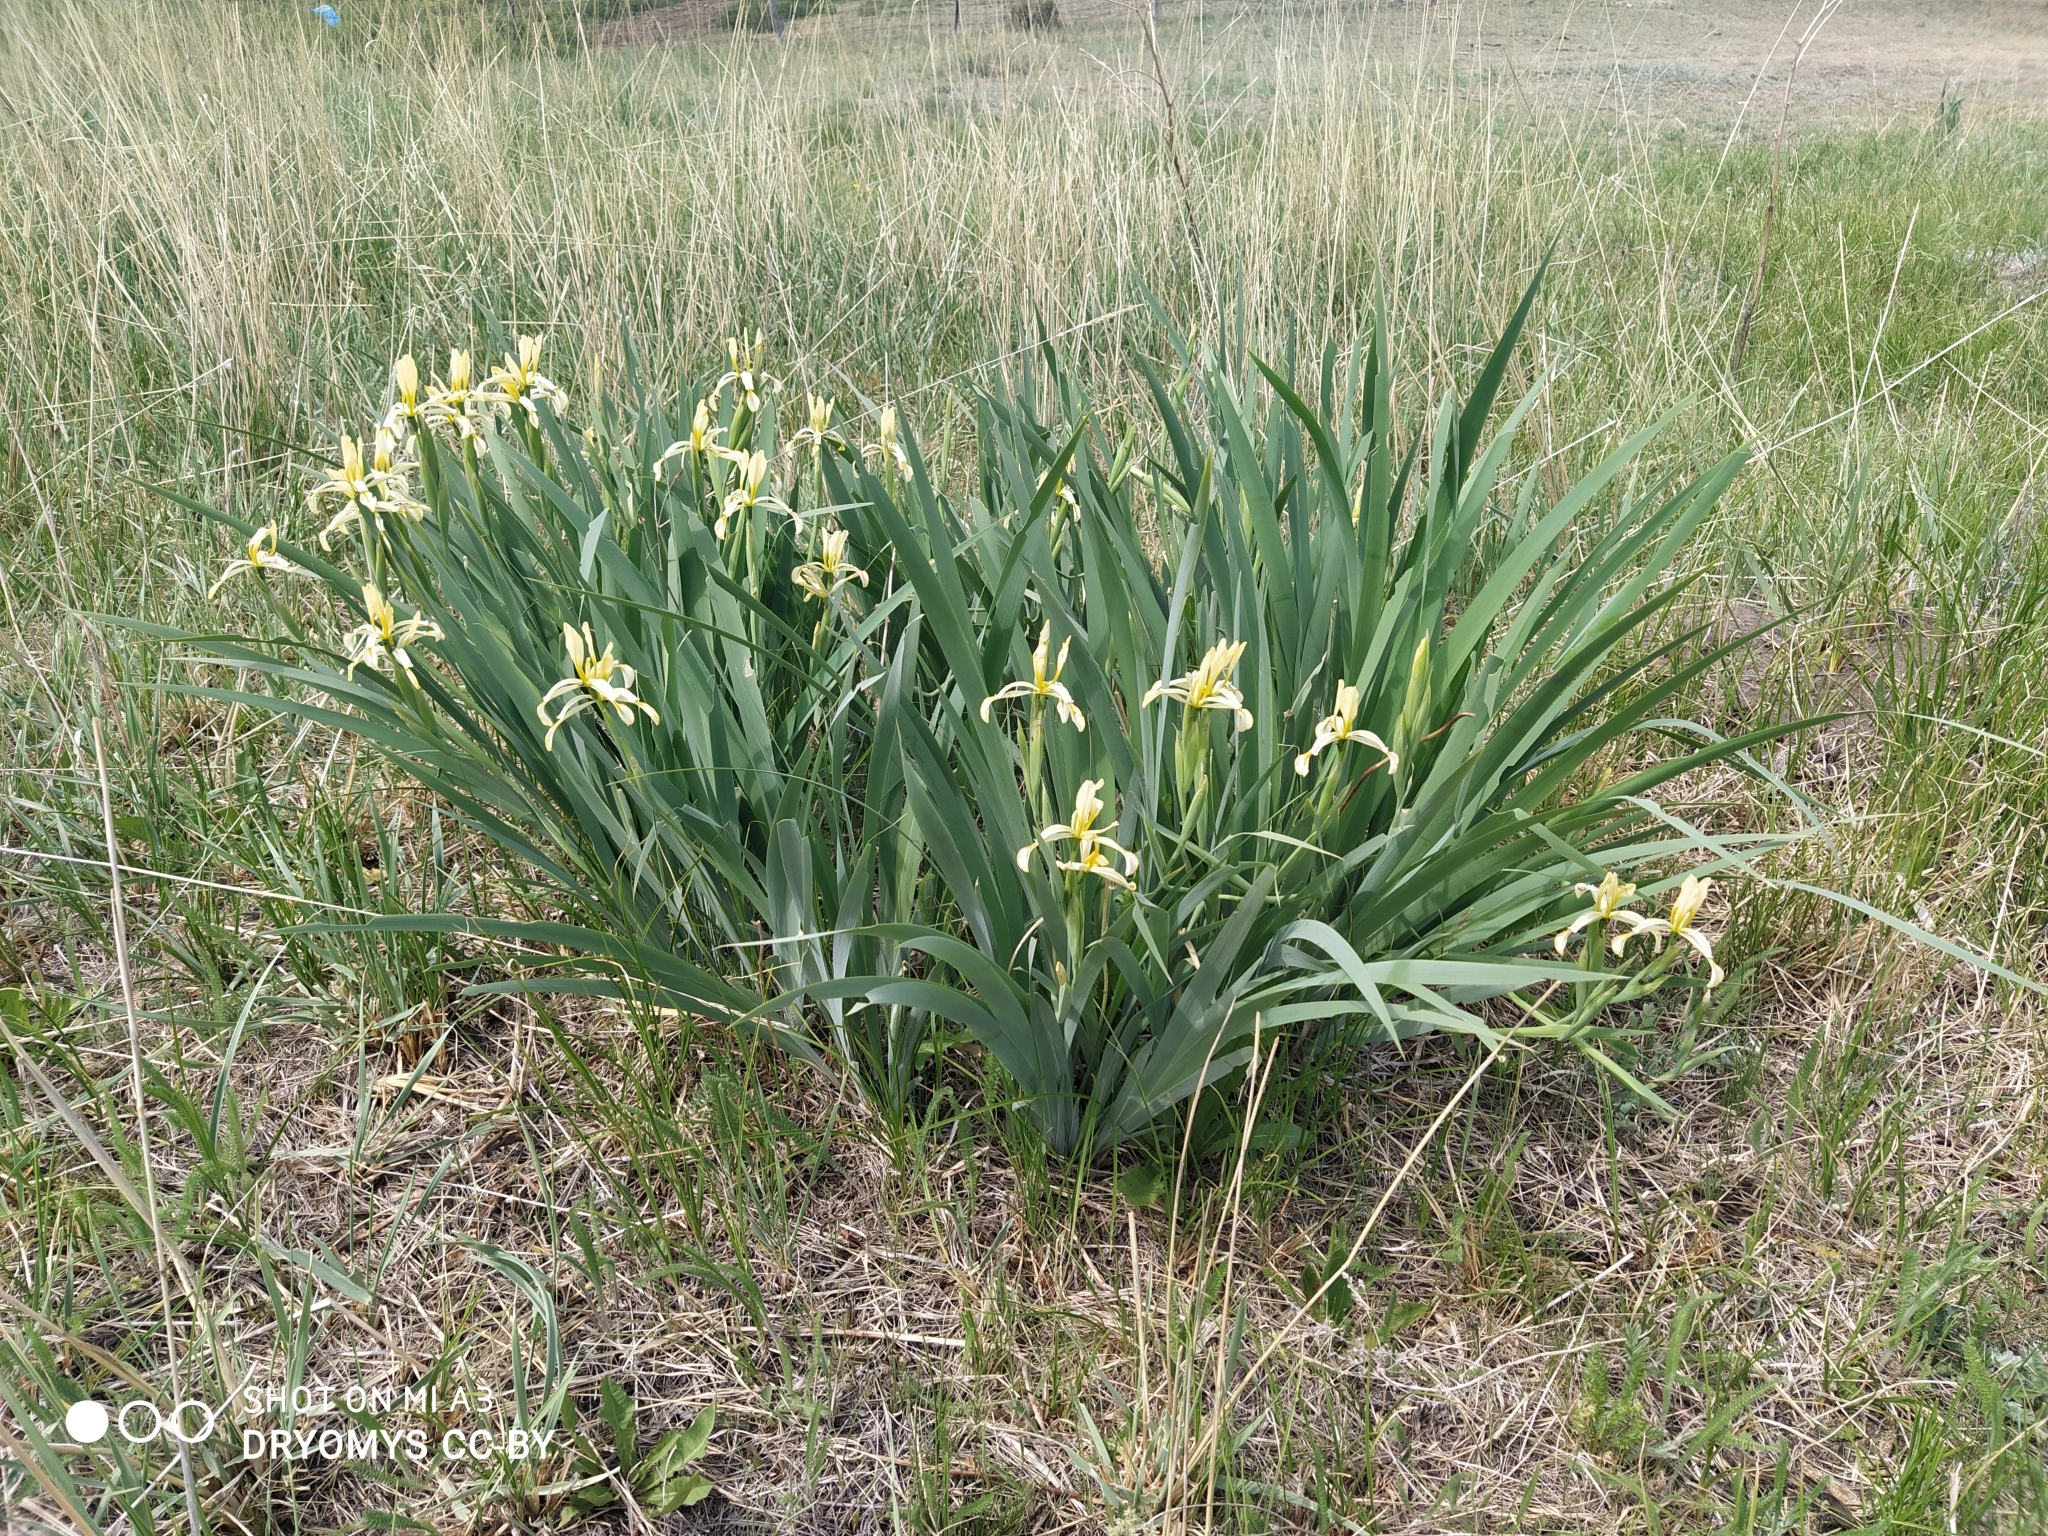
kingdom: Plantae
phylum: Tracheophyta
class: Liliopsida
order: Asparagales
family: Iridaceae
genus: Iris
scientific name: Iris halophila
